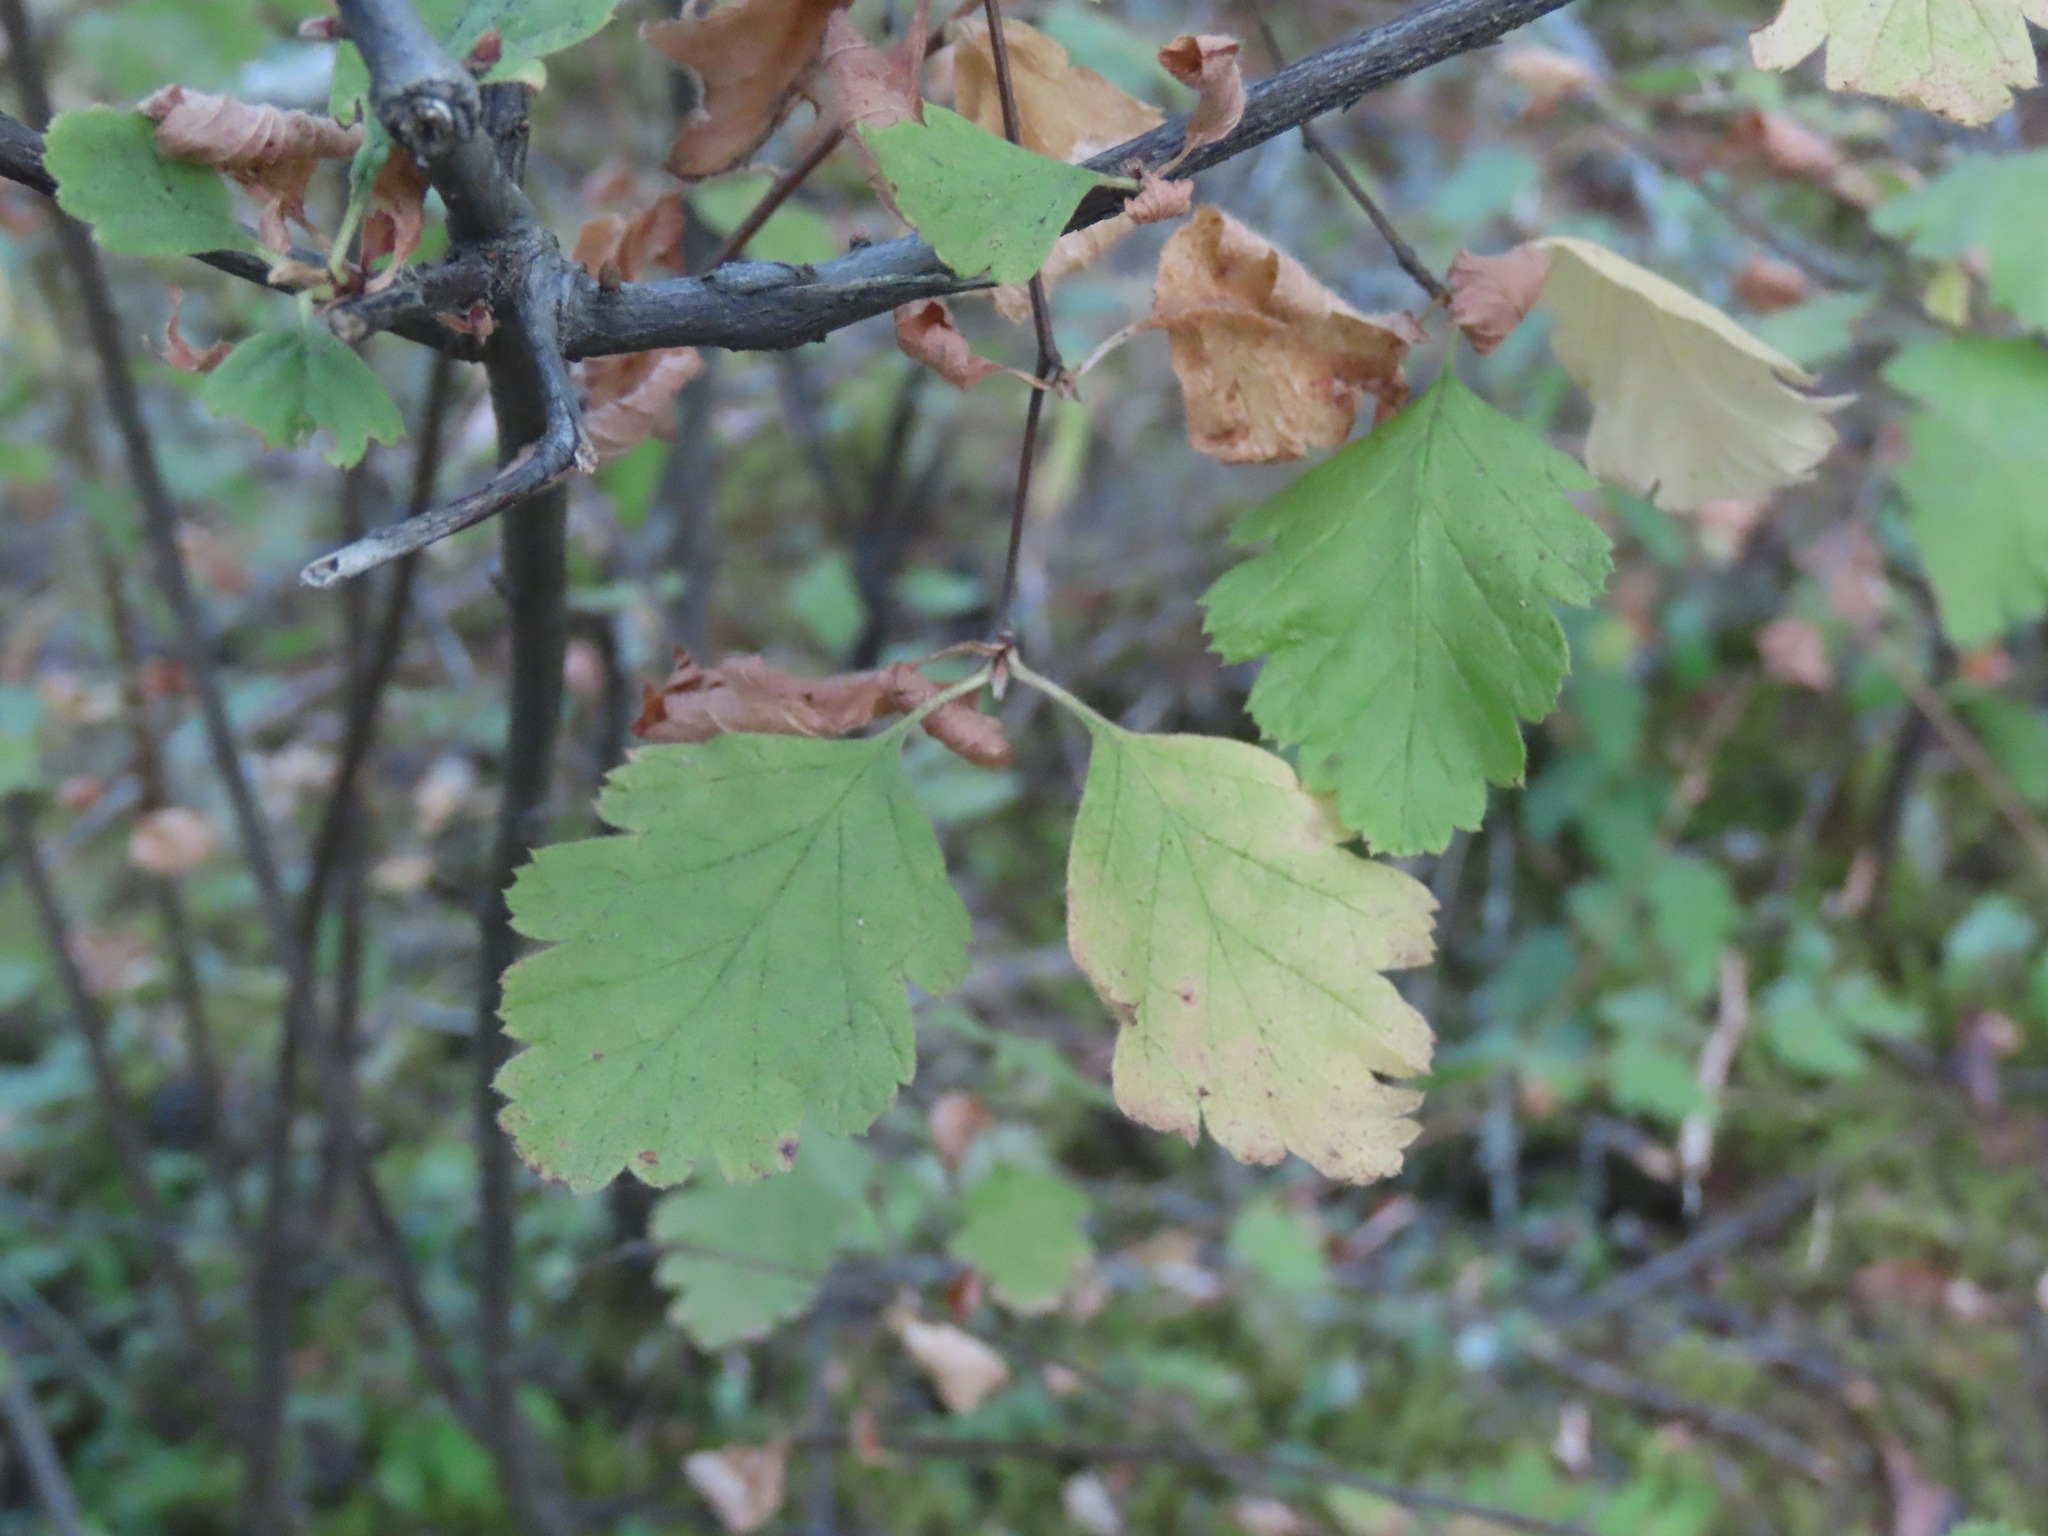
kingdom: Plantae
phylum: Tracheophyta
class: Magnoliopsida
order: Rosales
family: Rosaceae
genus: Holodiscus
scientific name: Holodiscus discolor
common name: Oceanspray
